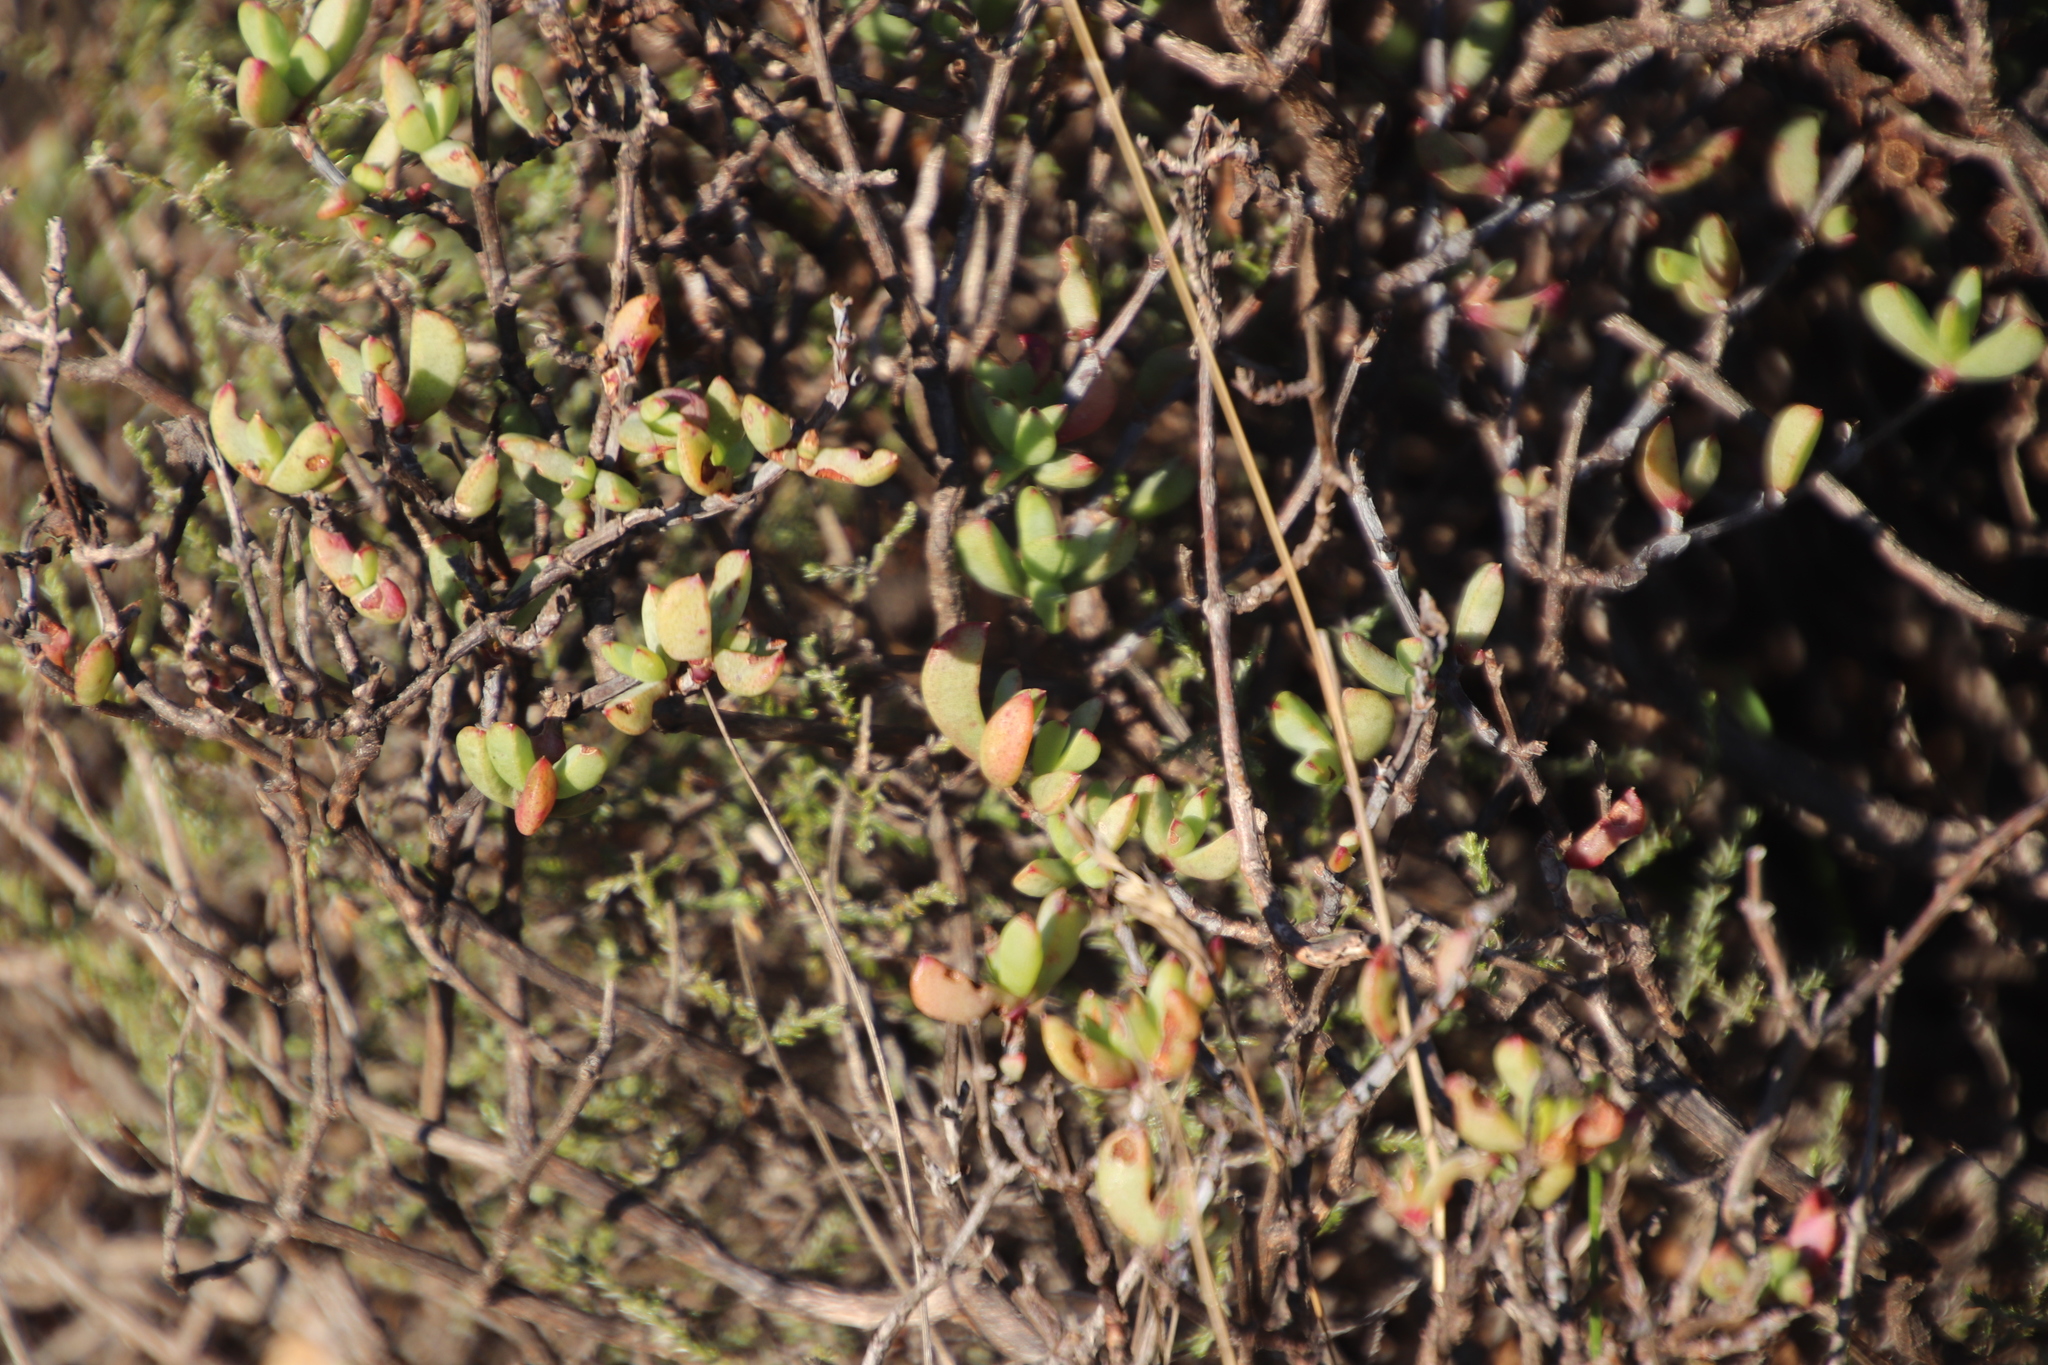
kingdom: Plantae
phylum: Tracheophyta
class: Magnoliopsida
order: Caryophyllales
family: Aizoaceae
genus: Oscularia
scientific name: Oscularia falciformis
